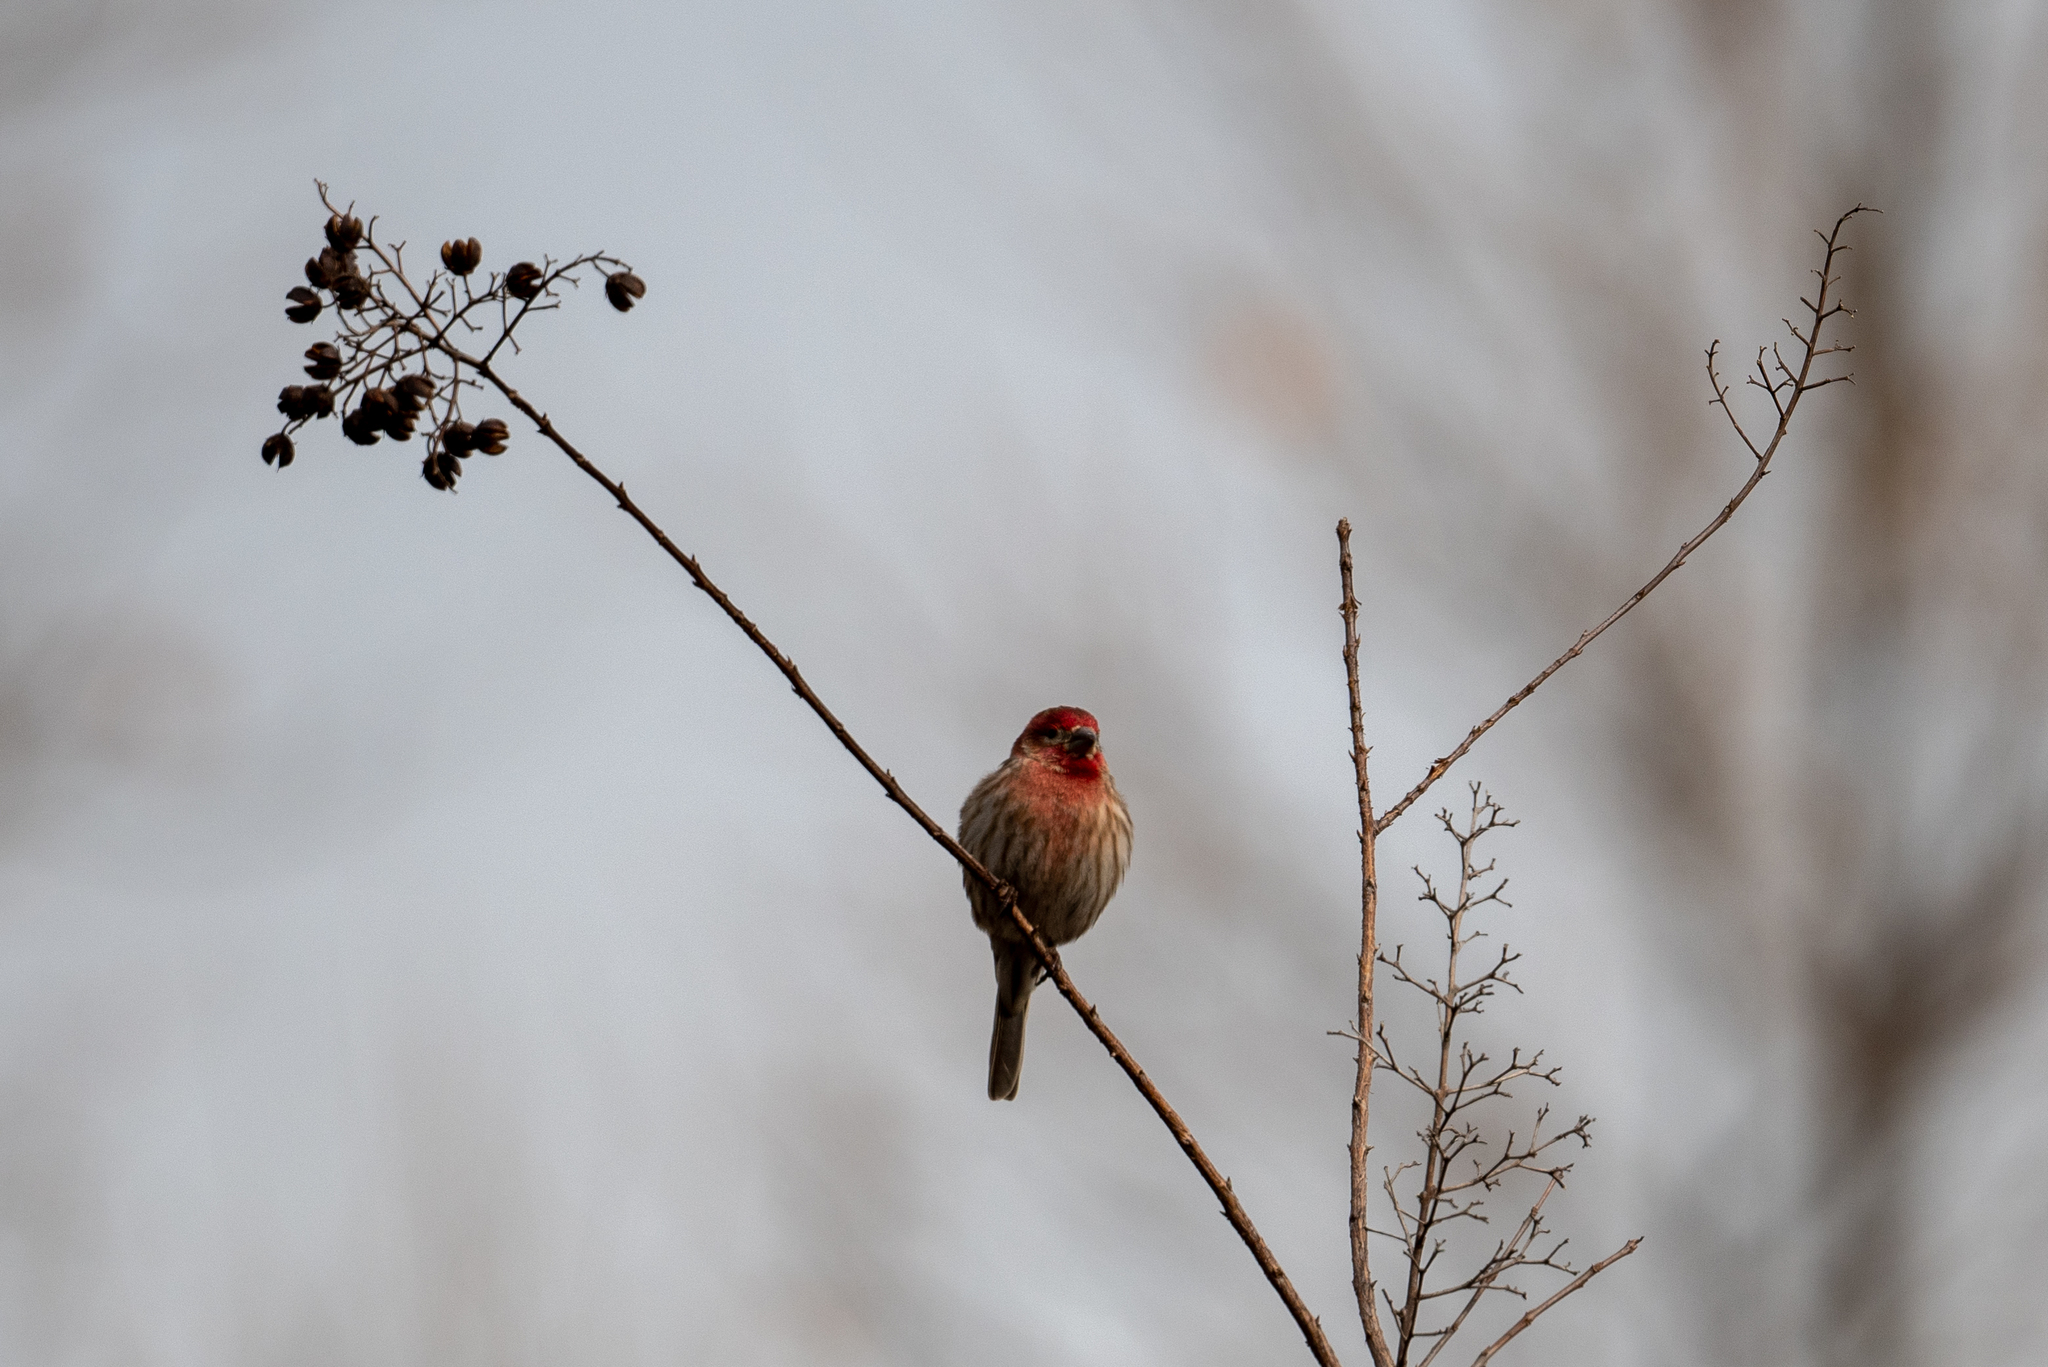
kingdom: Animalia
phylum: Chordata
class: Aves
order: Passeriformes
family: Fringillidae
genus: Haemorhous
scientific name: Haemorhous mexicanus
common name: House finch
